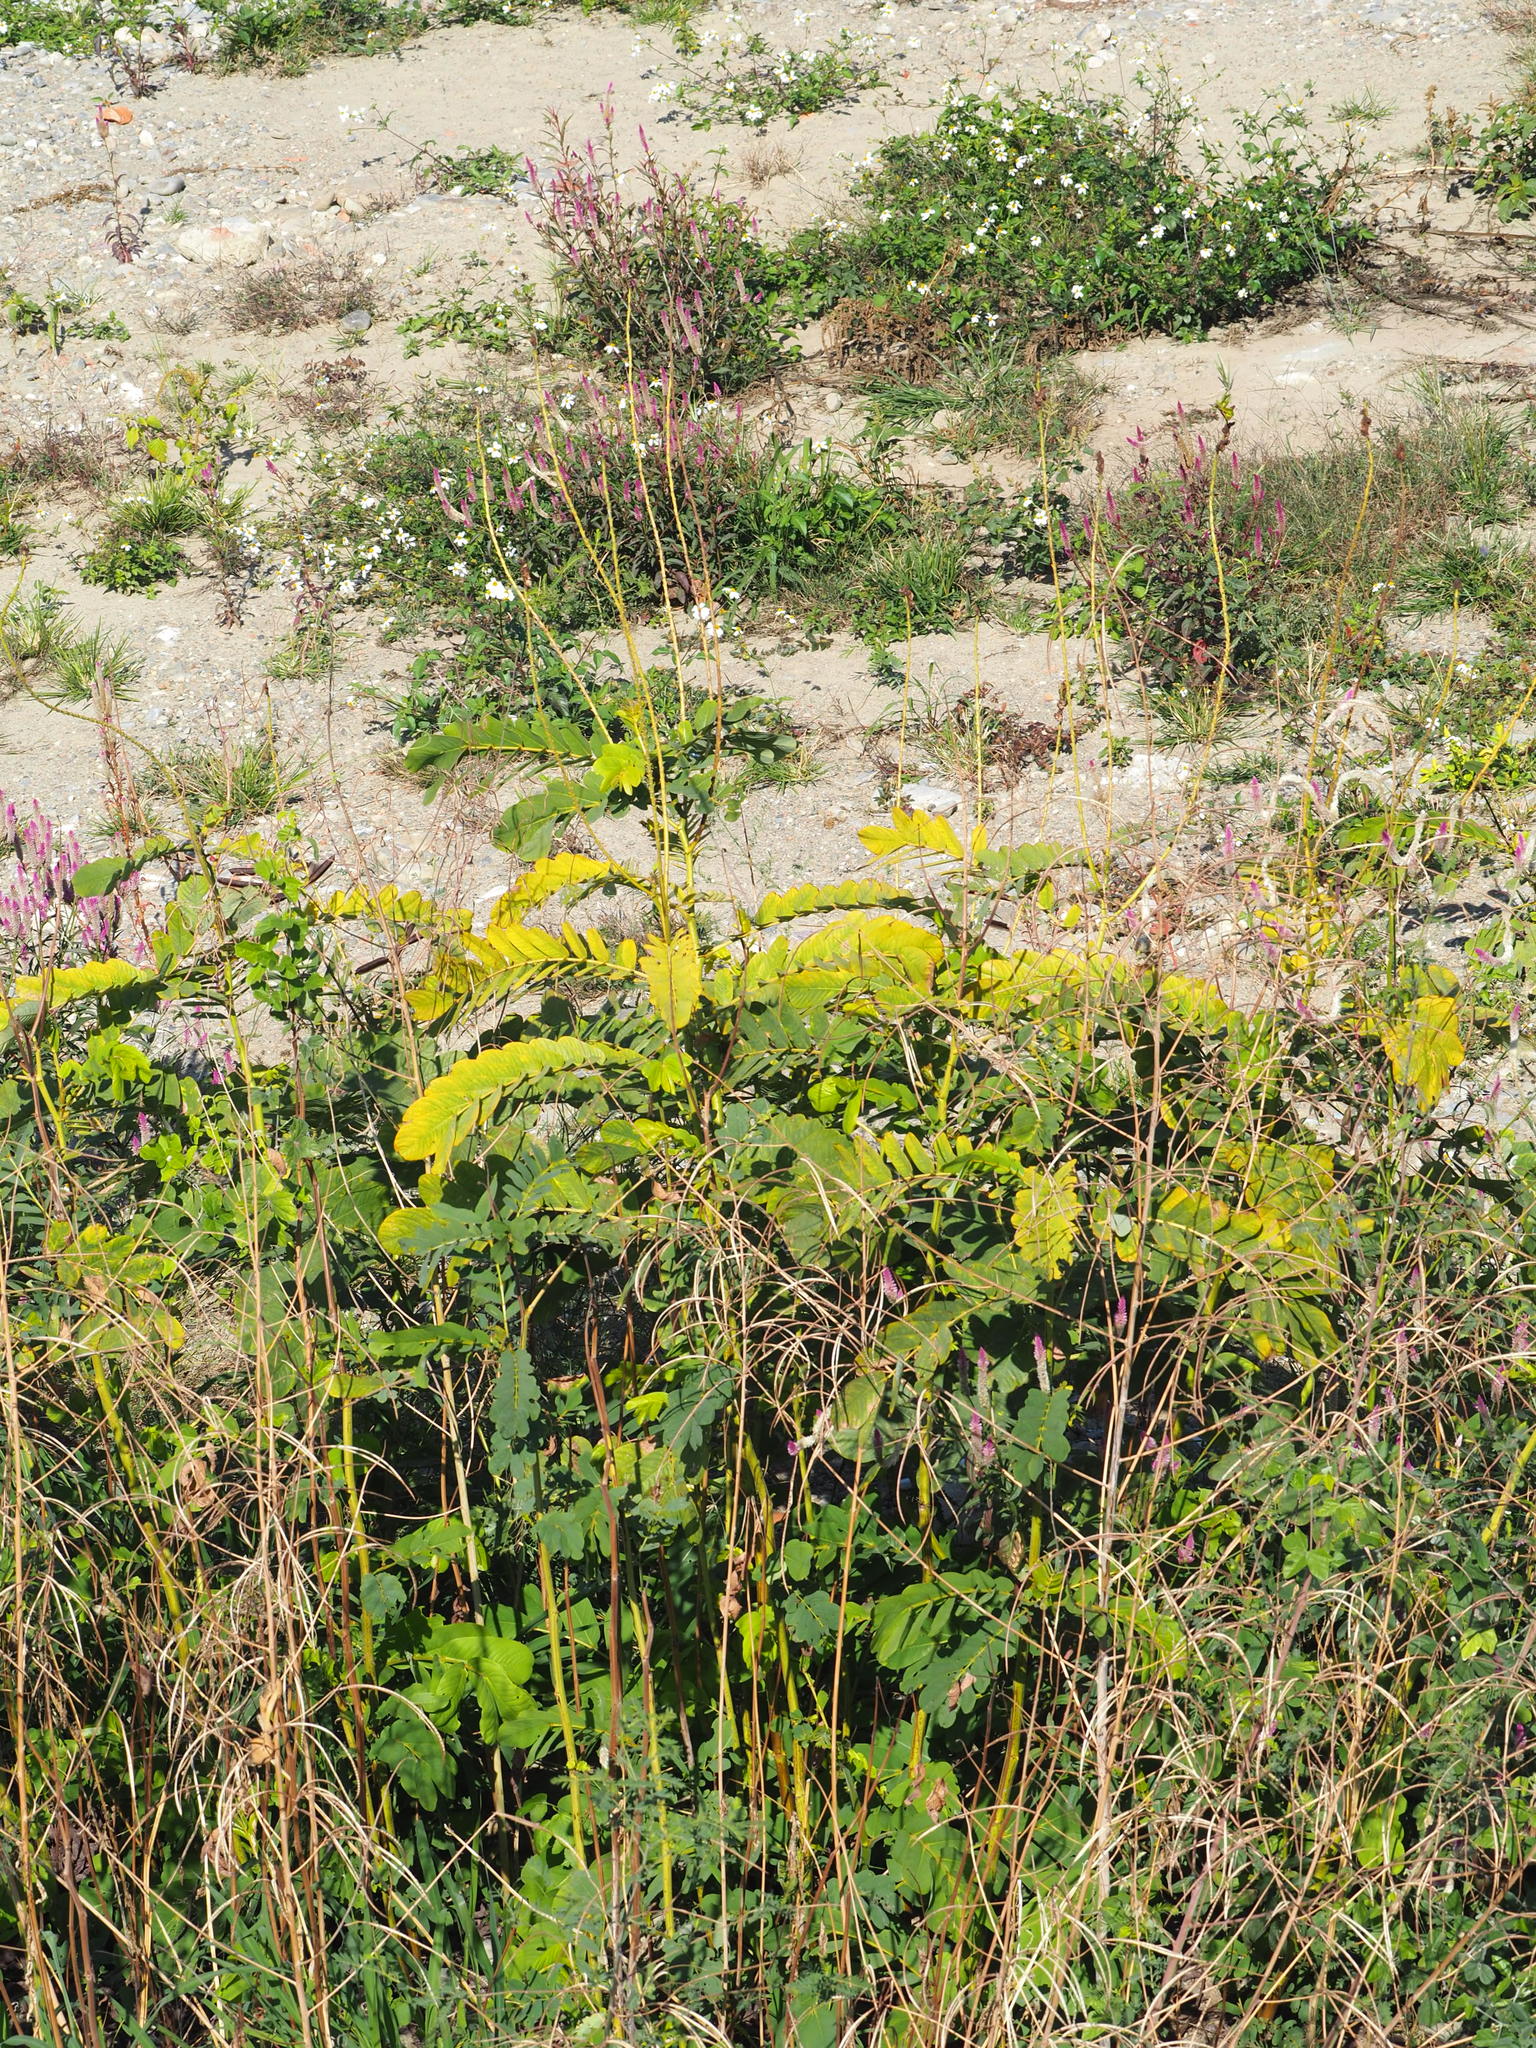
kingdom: Plantae
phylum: Tracheophyta
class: Magnoliopsida
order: Fabales
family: Fabaceae
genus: Senna
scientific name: Senna alata
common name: Emperor's candlesticks
